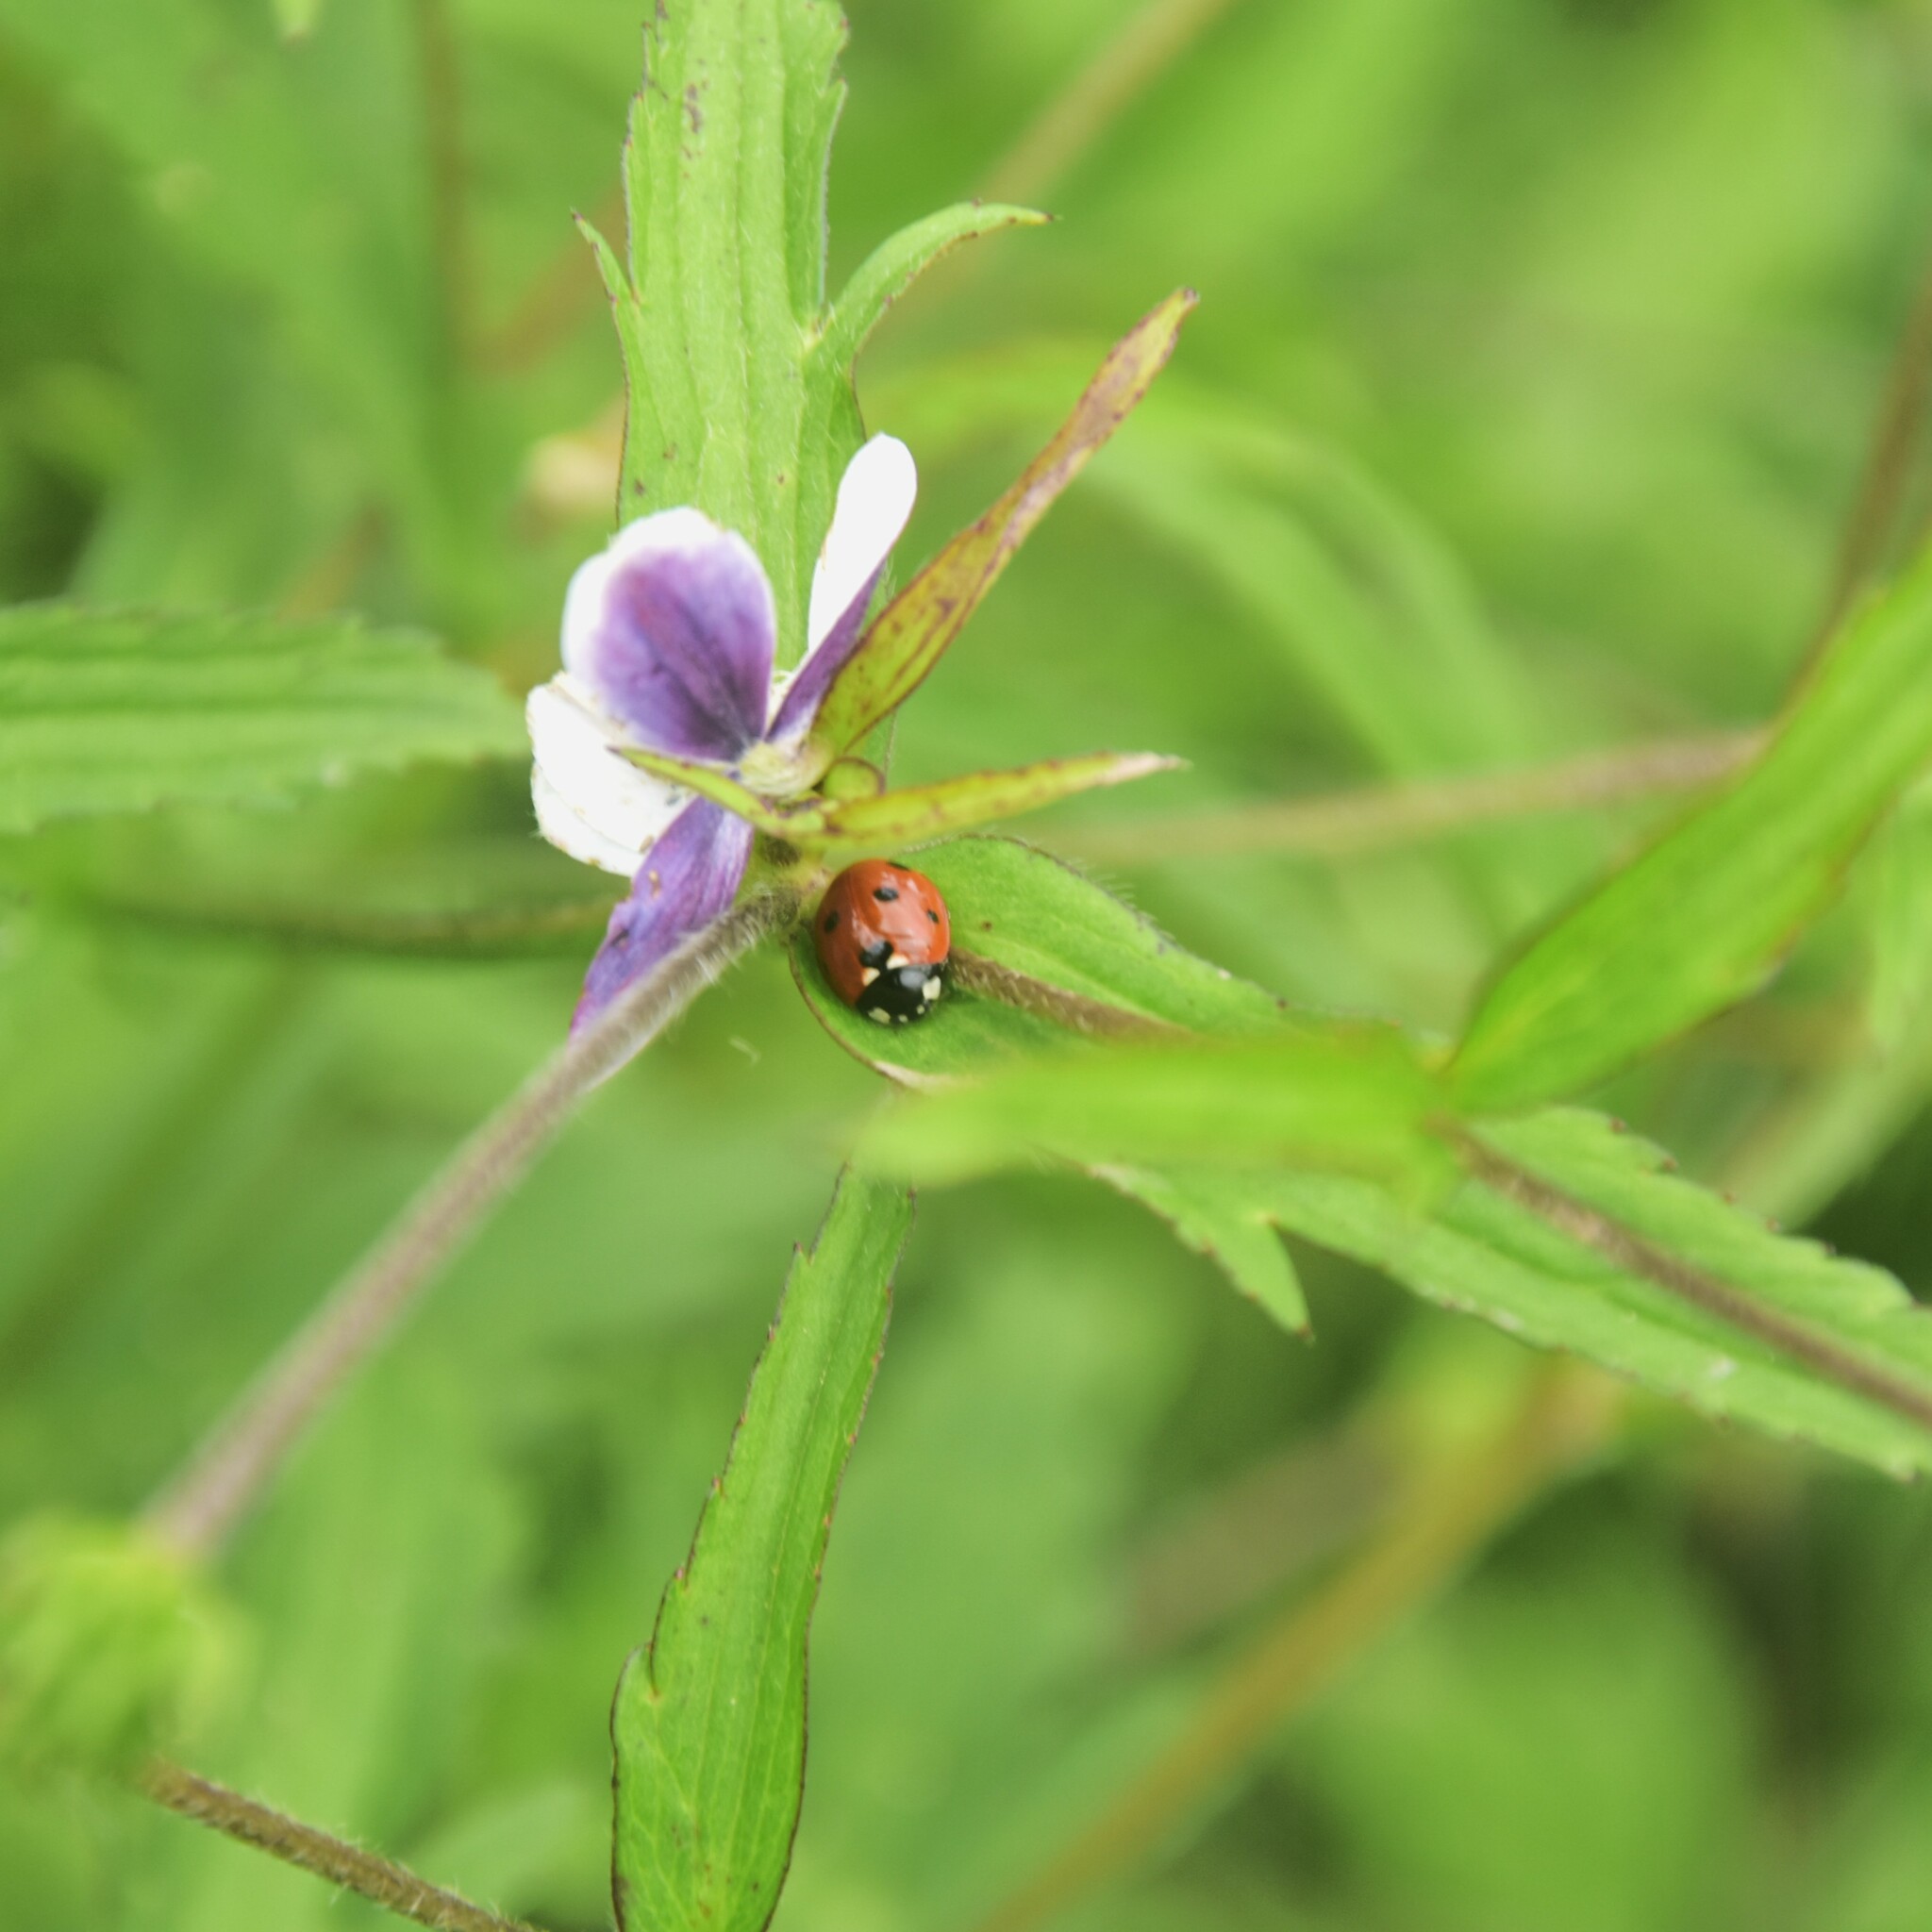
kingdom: Animalia
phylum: Arthropoda
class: Insecta
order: Coleoptera
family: Coccinellidae
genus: Coccinella
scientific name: Coccinella septempunctata
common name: Sevenspotted lady beetle
